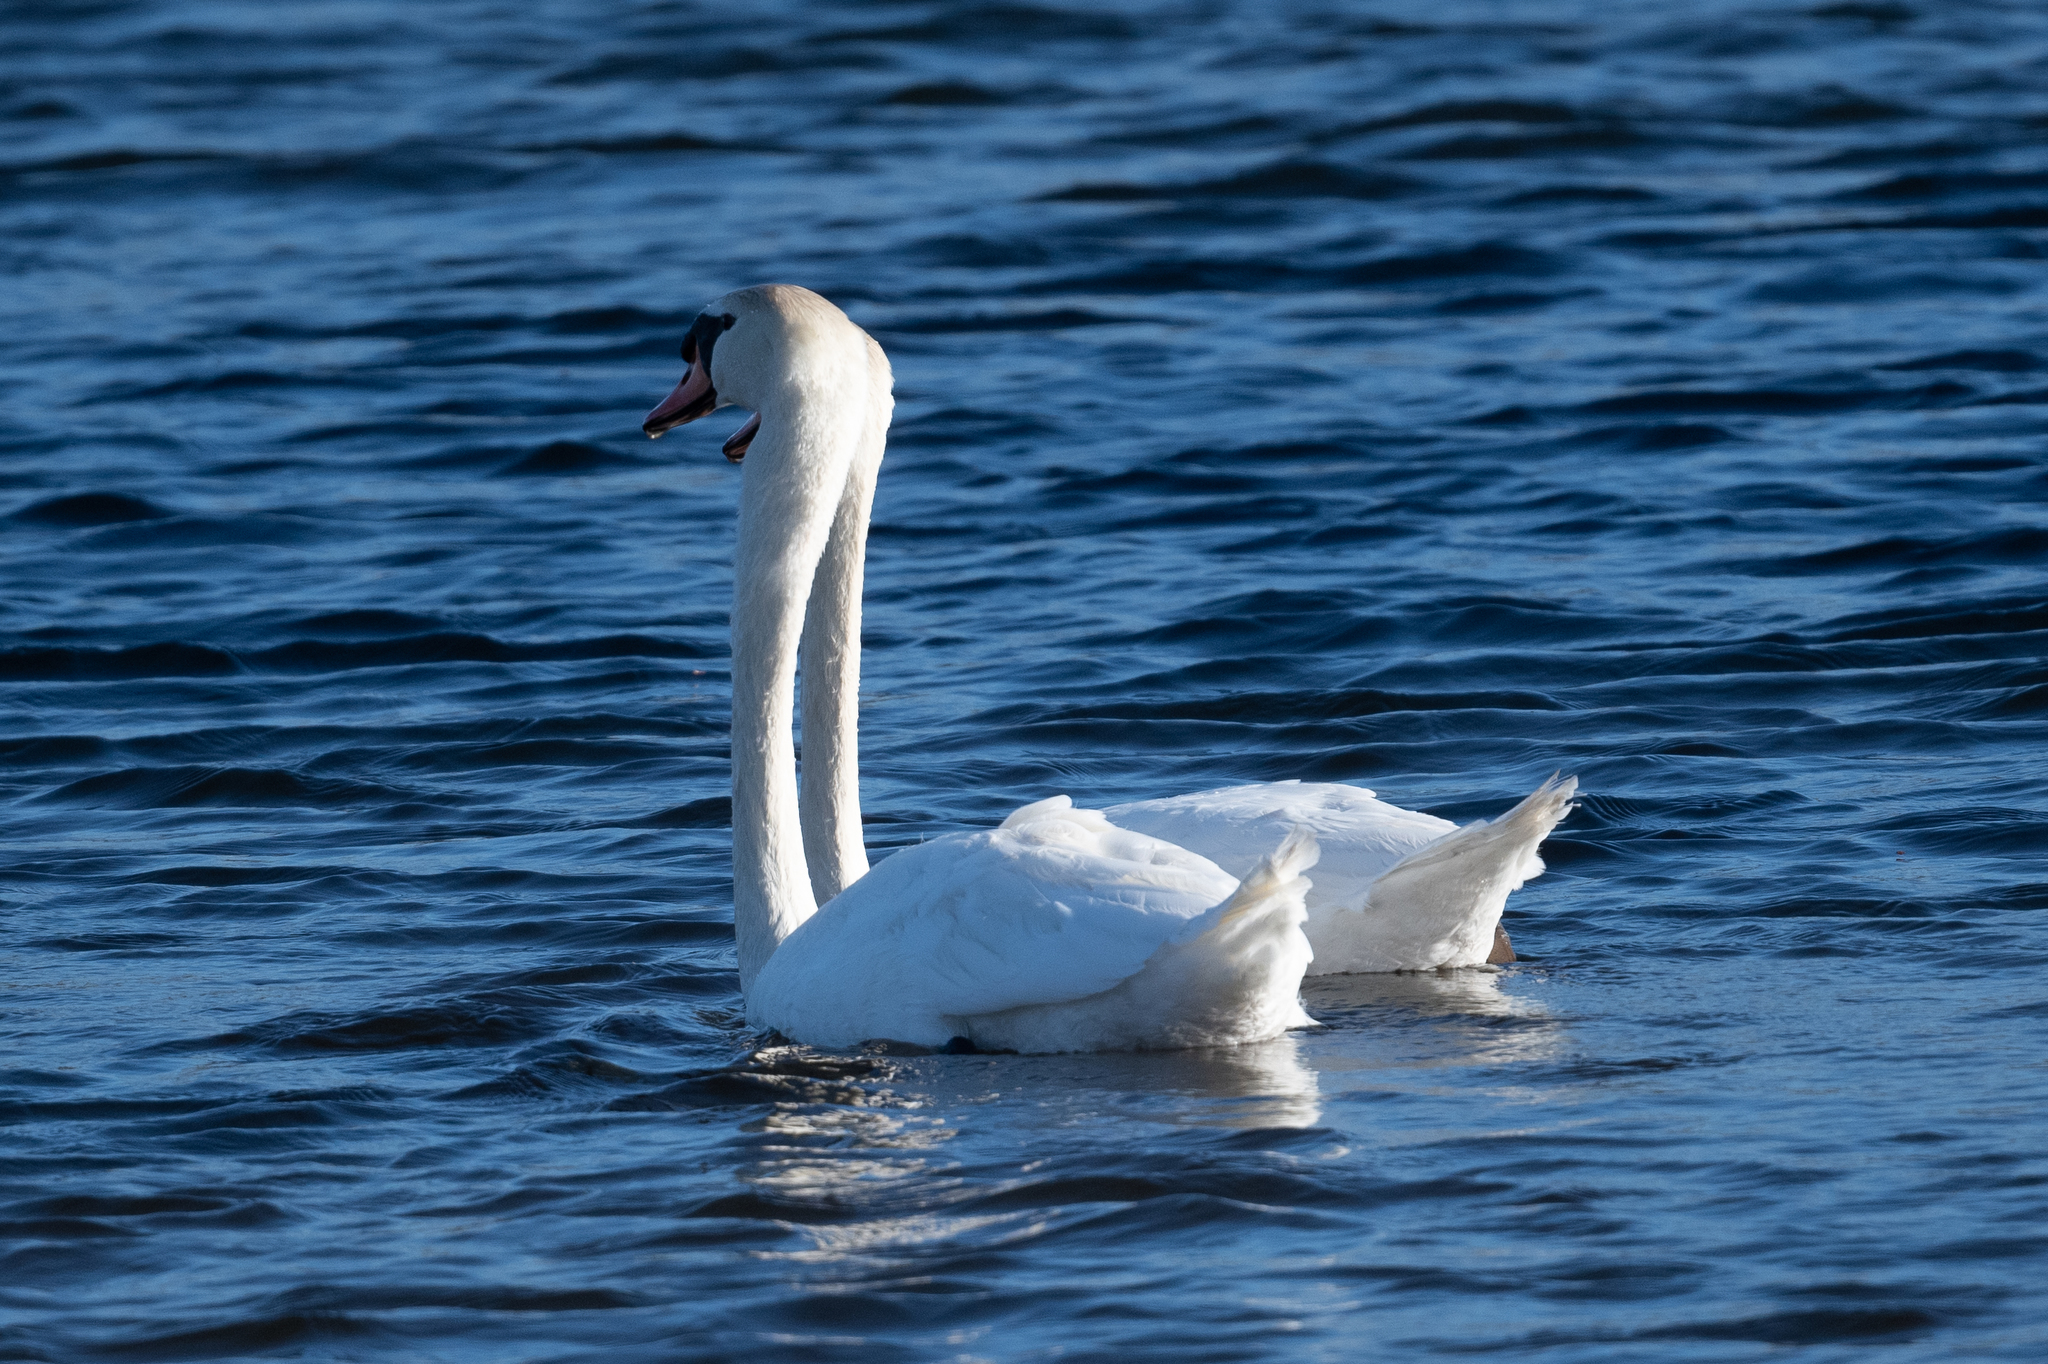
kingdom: Animalia
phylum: Chordata
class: Aves
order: Anseriformes
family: Anatidae
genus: Cygnus
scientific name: Cygnus olor
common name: Mute swan
